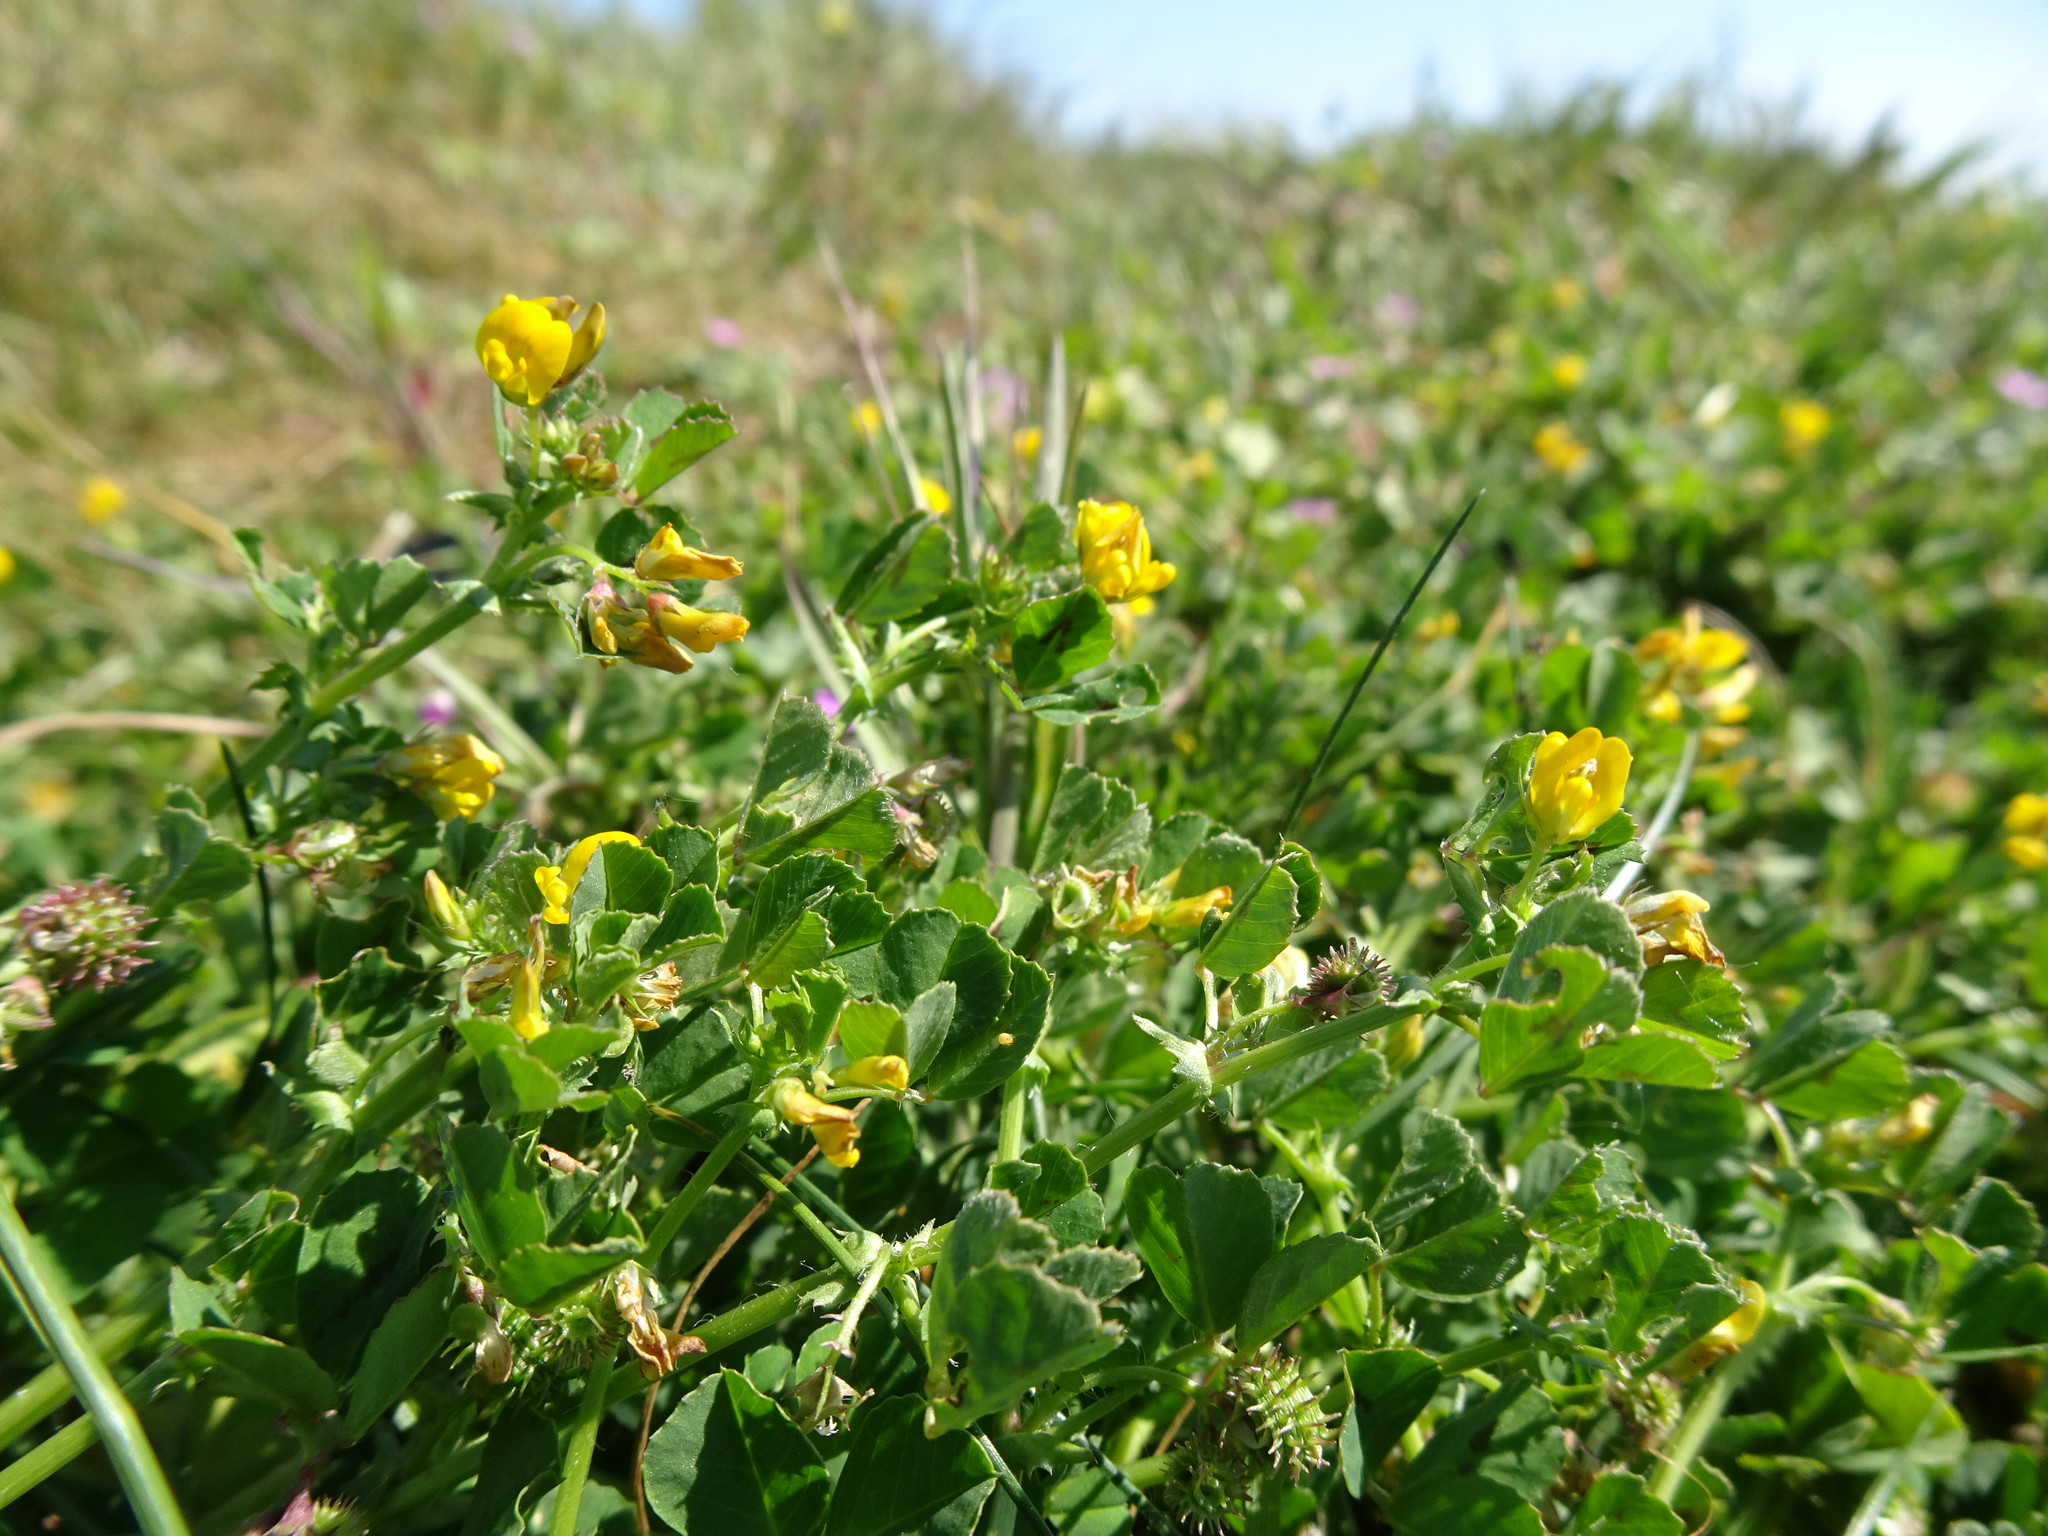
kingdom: Plantae
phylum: Tracheophyta
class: Magnoliopsida
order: Fabales
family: Fabaceae
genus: Medicago
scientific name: Medicago arabica
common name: Spotted medick
